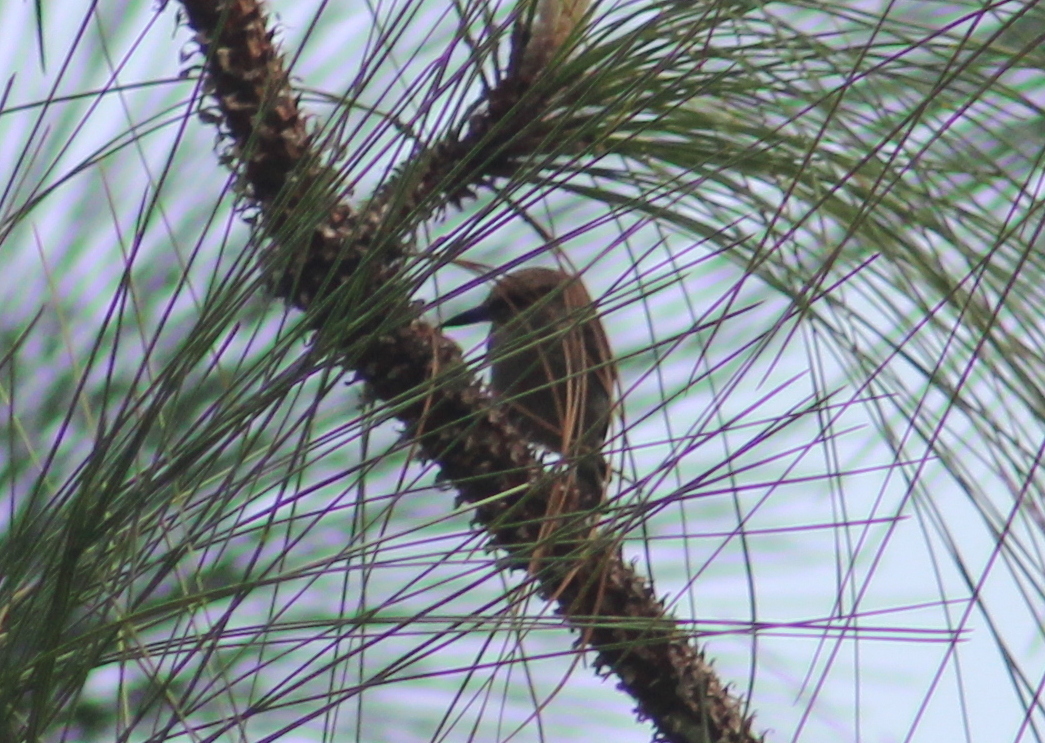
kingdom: Animalia
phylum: Chordata
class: Aves
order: Passeriformes
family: Sittidae
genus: Sitta
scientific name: Sitta pusilla
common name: Brown-headed nuthatch
